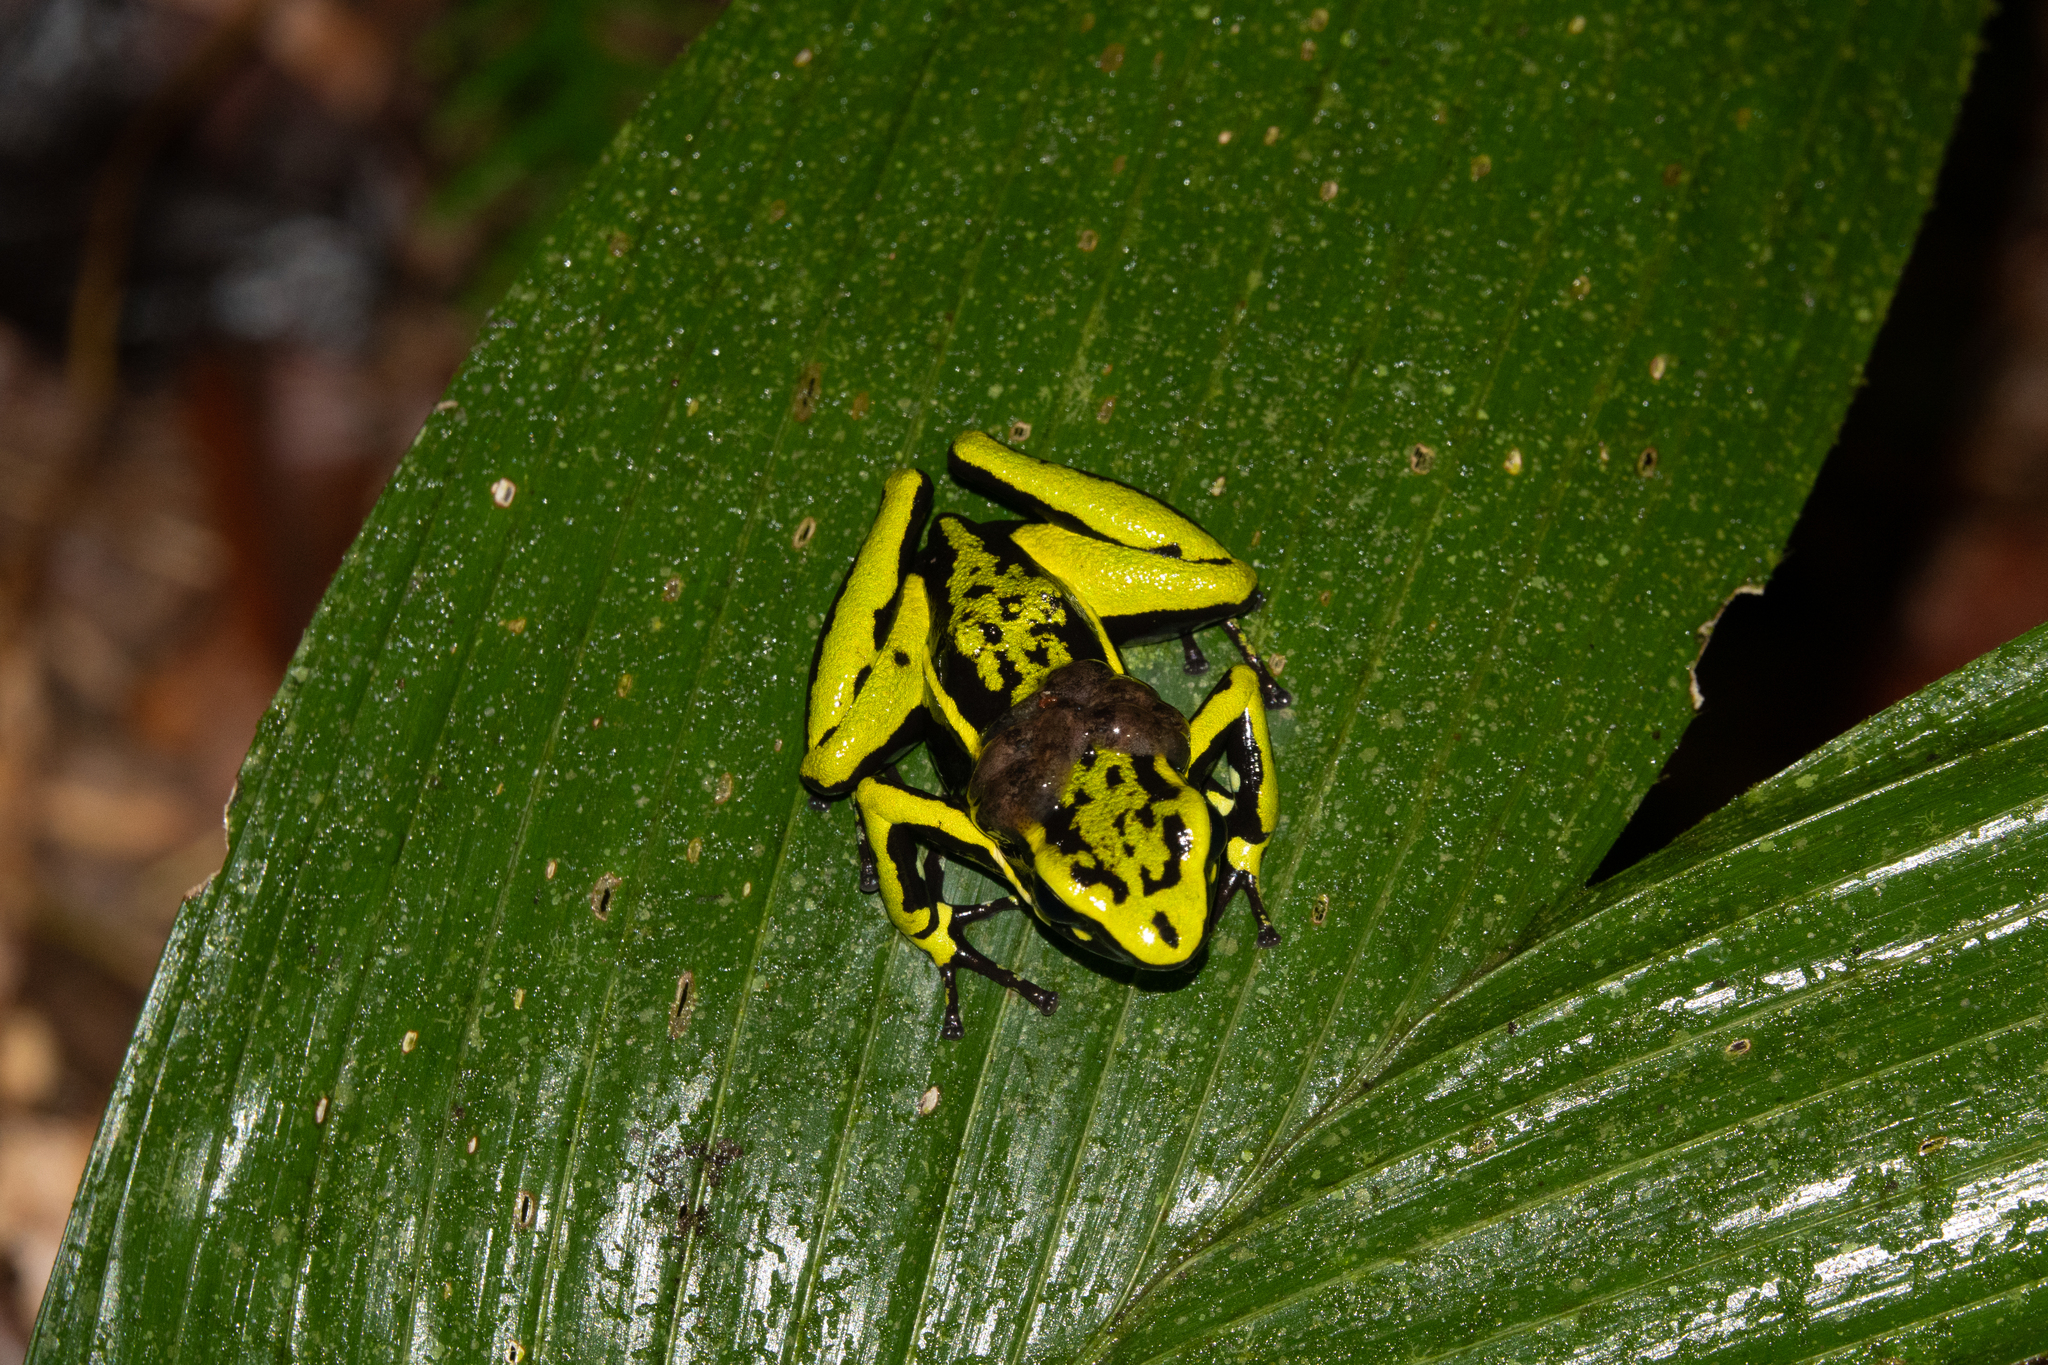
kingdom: Animalia
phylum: Chordata
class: Amphibia
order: Anura
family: Dendrobatidae
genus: Ameerega
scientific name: Ameerega trivittata
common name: Three-striped arrow-poison frog
